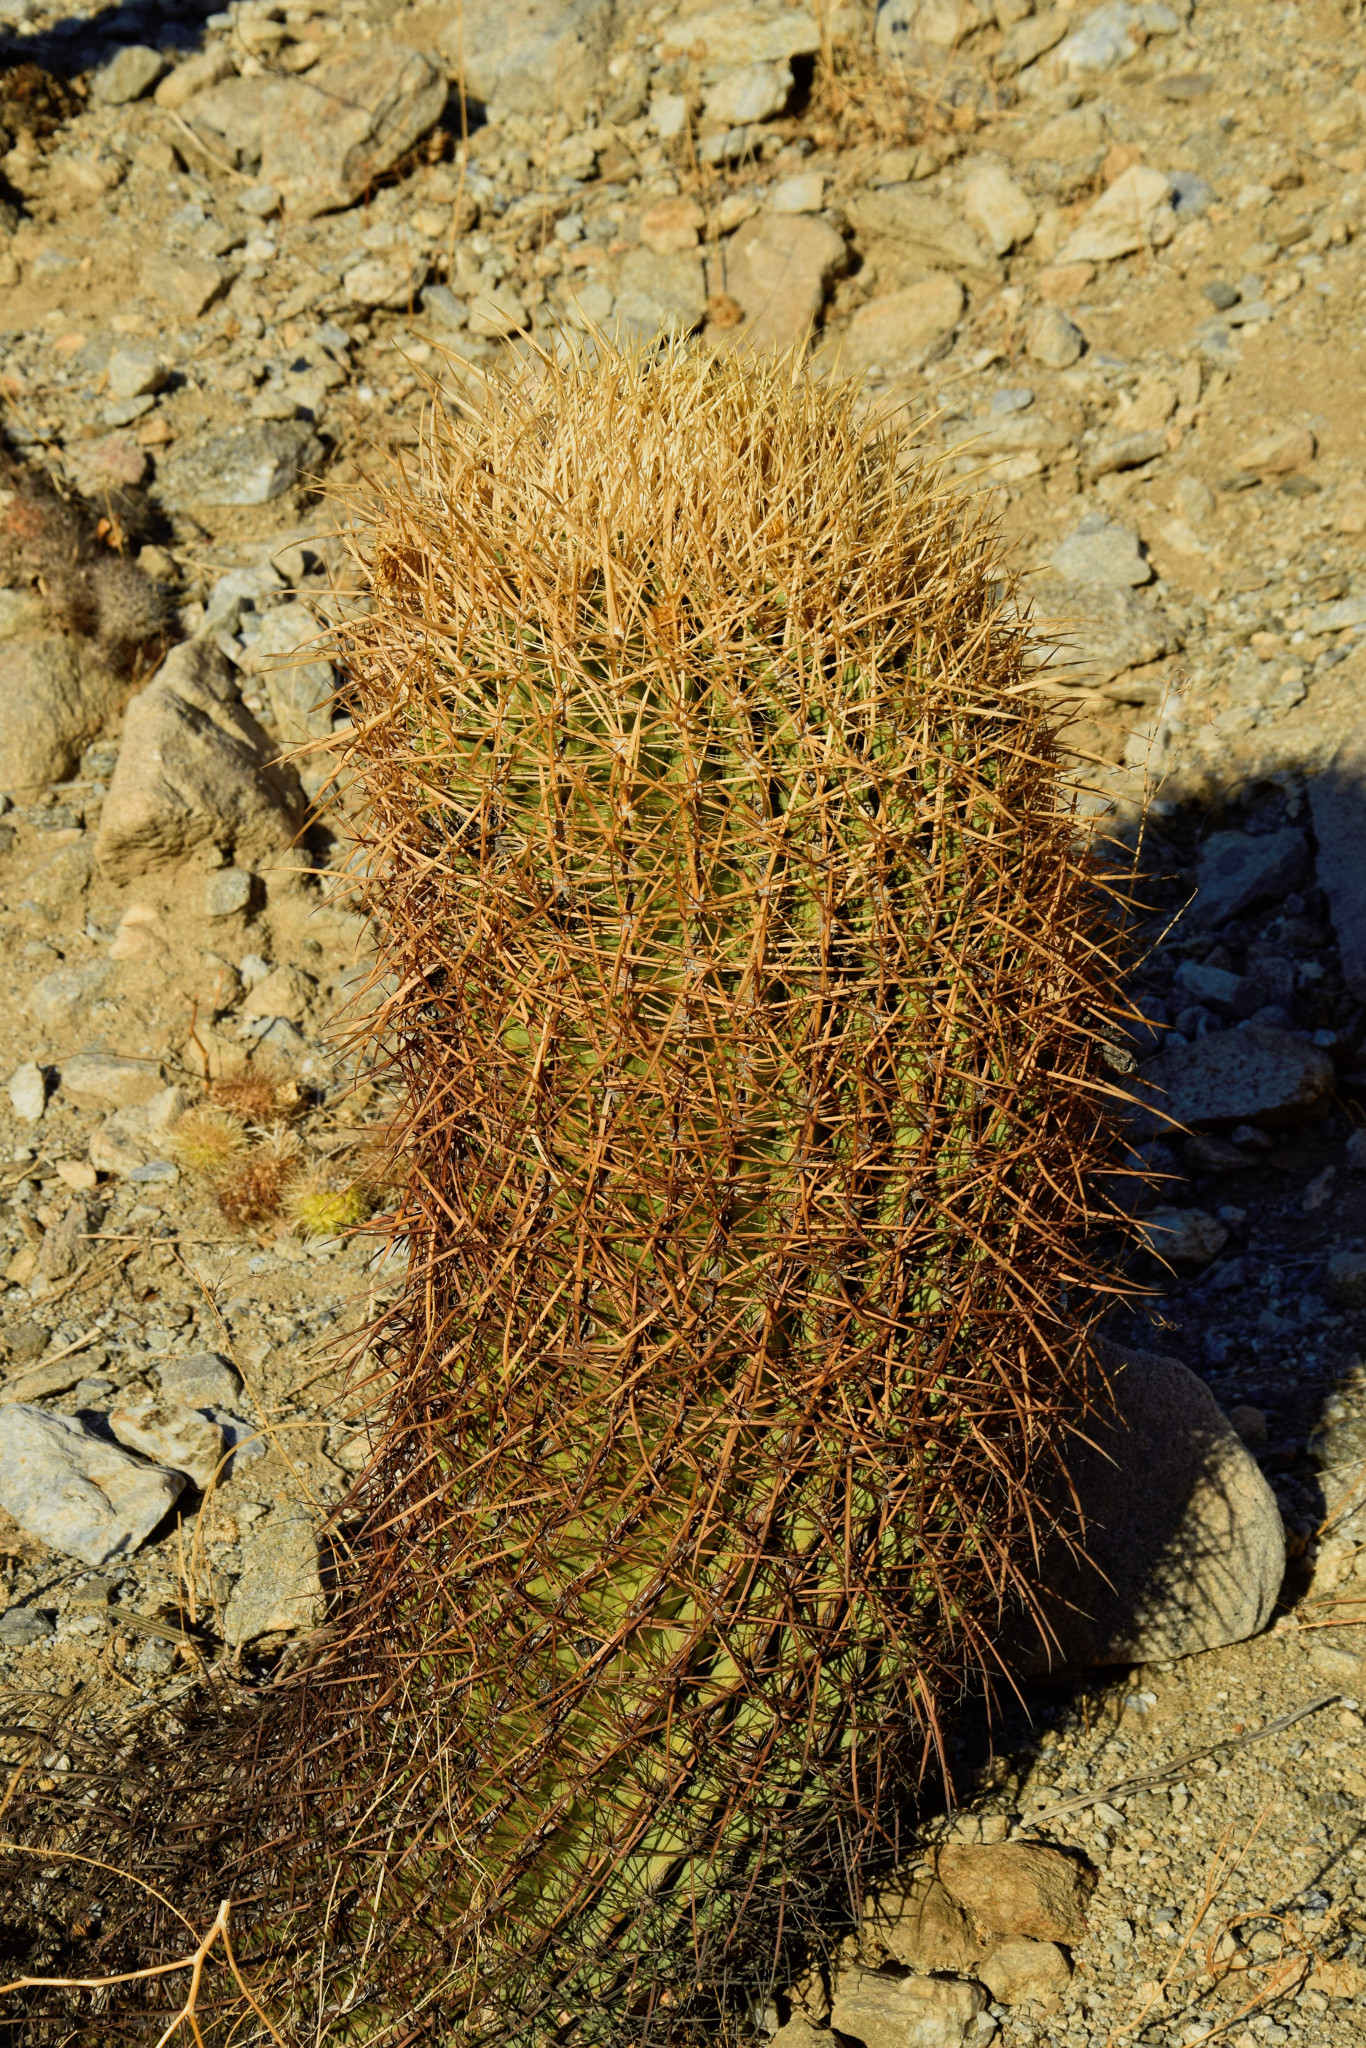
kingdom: Plantae
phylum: Tracheophyta
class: Magnoliopsida
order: Caryophyllales
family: Cactaceae
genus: Ferocactus
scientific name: Ferocactus cylindraceus
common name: California barrel cactus
